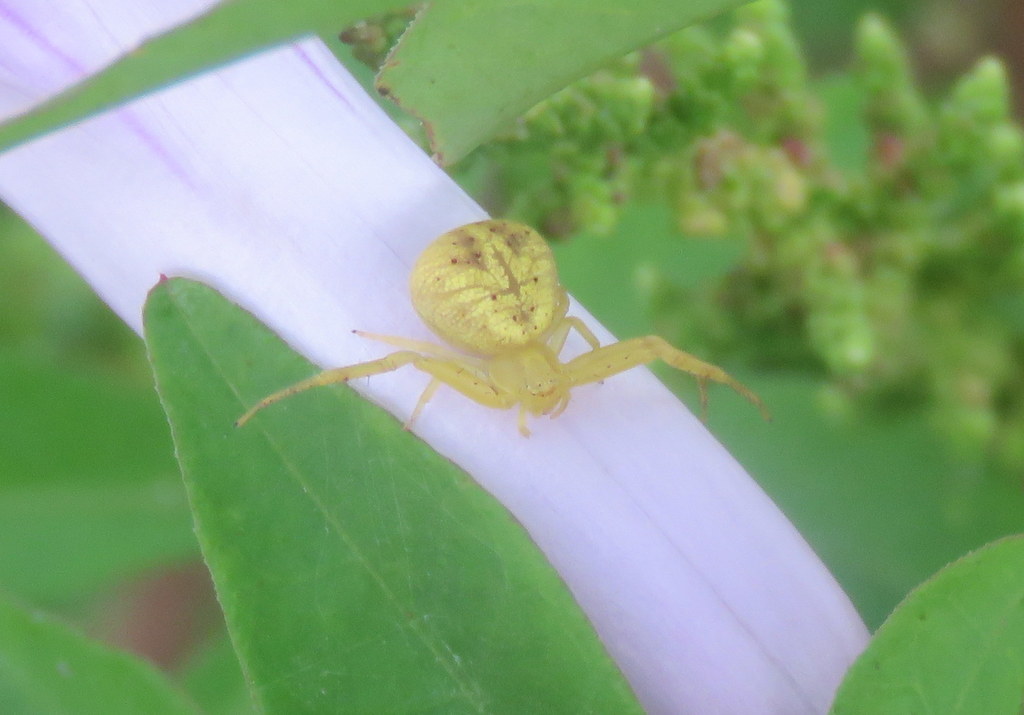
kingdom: Animalia
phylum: Arthropoda
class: Arachnida
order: Araneae
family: Thomisidae
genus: Misumenops
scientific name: Misumenops
